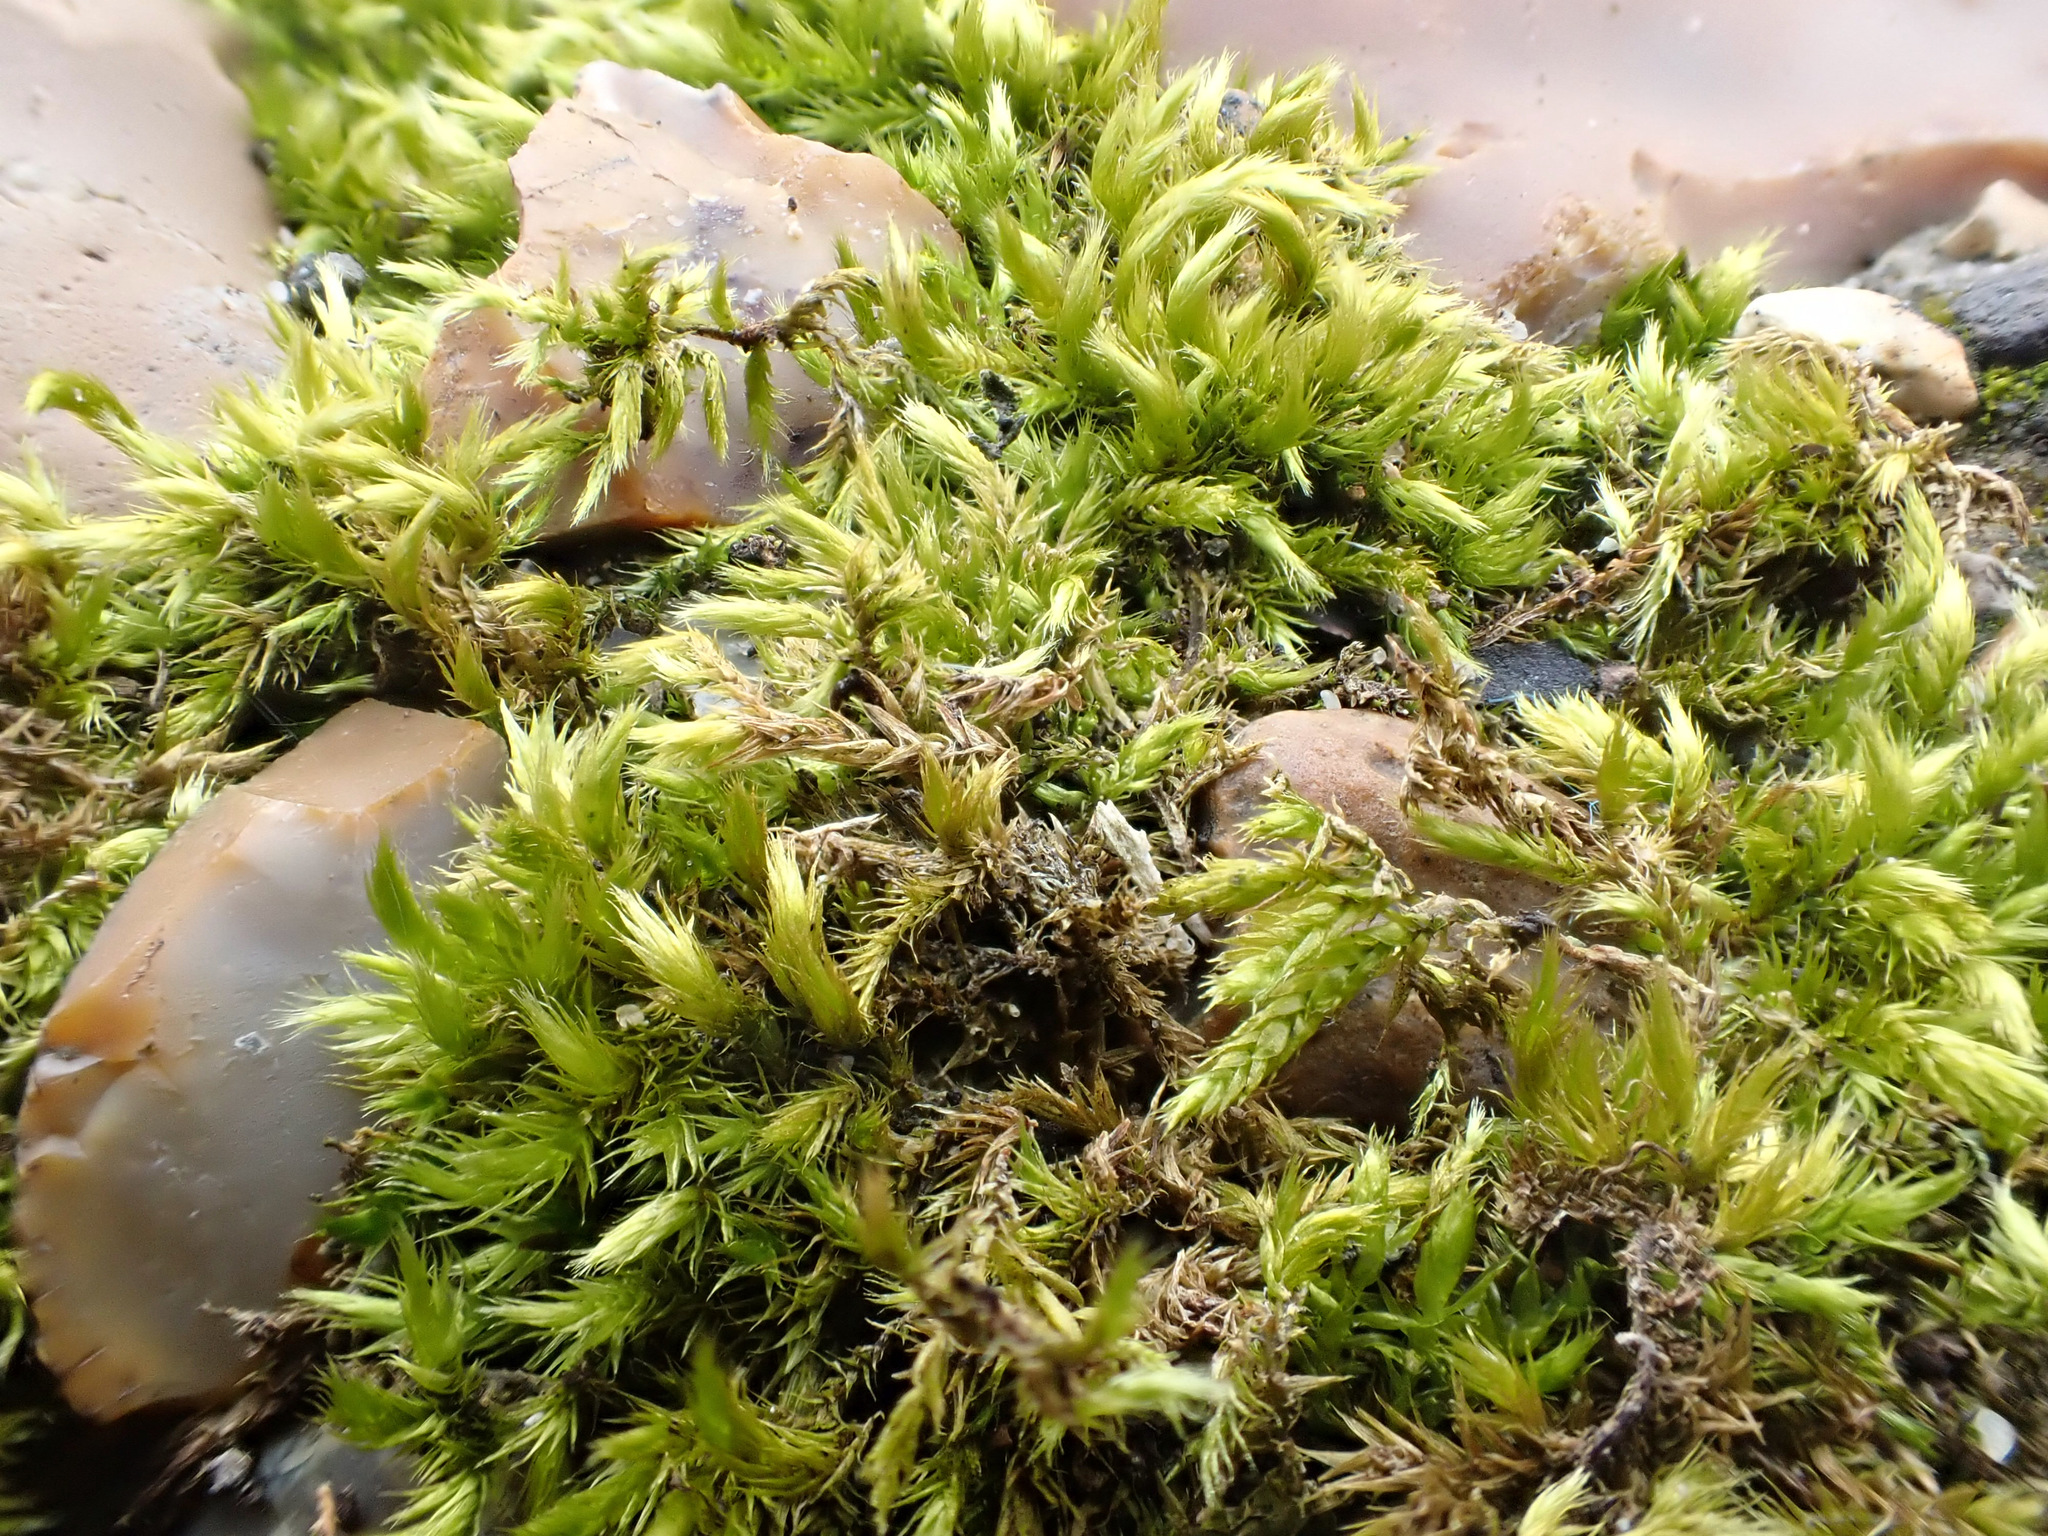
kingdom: Plantae
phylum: Bryophyta
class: Bryopsida
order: Hypnales
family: Brachytheciaceae
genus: Homalothecium
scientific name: Homalothecium sericeum
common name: Silky wall feather-moss
